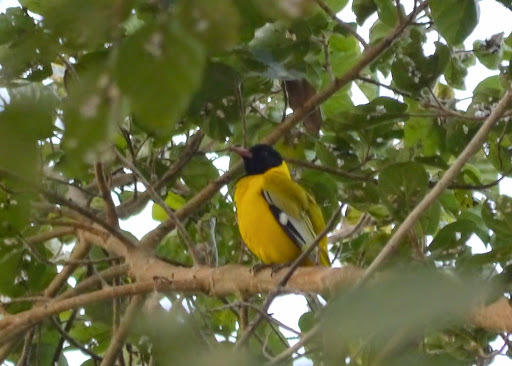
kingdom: Animalia
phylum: Chordata
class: Aves
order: Passeriformes
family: Oriolidae
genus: Oriolus
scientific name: Oriolus larvatus
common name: Black-headed oriole
